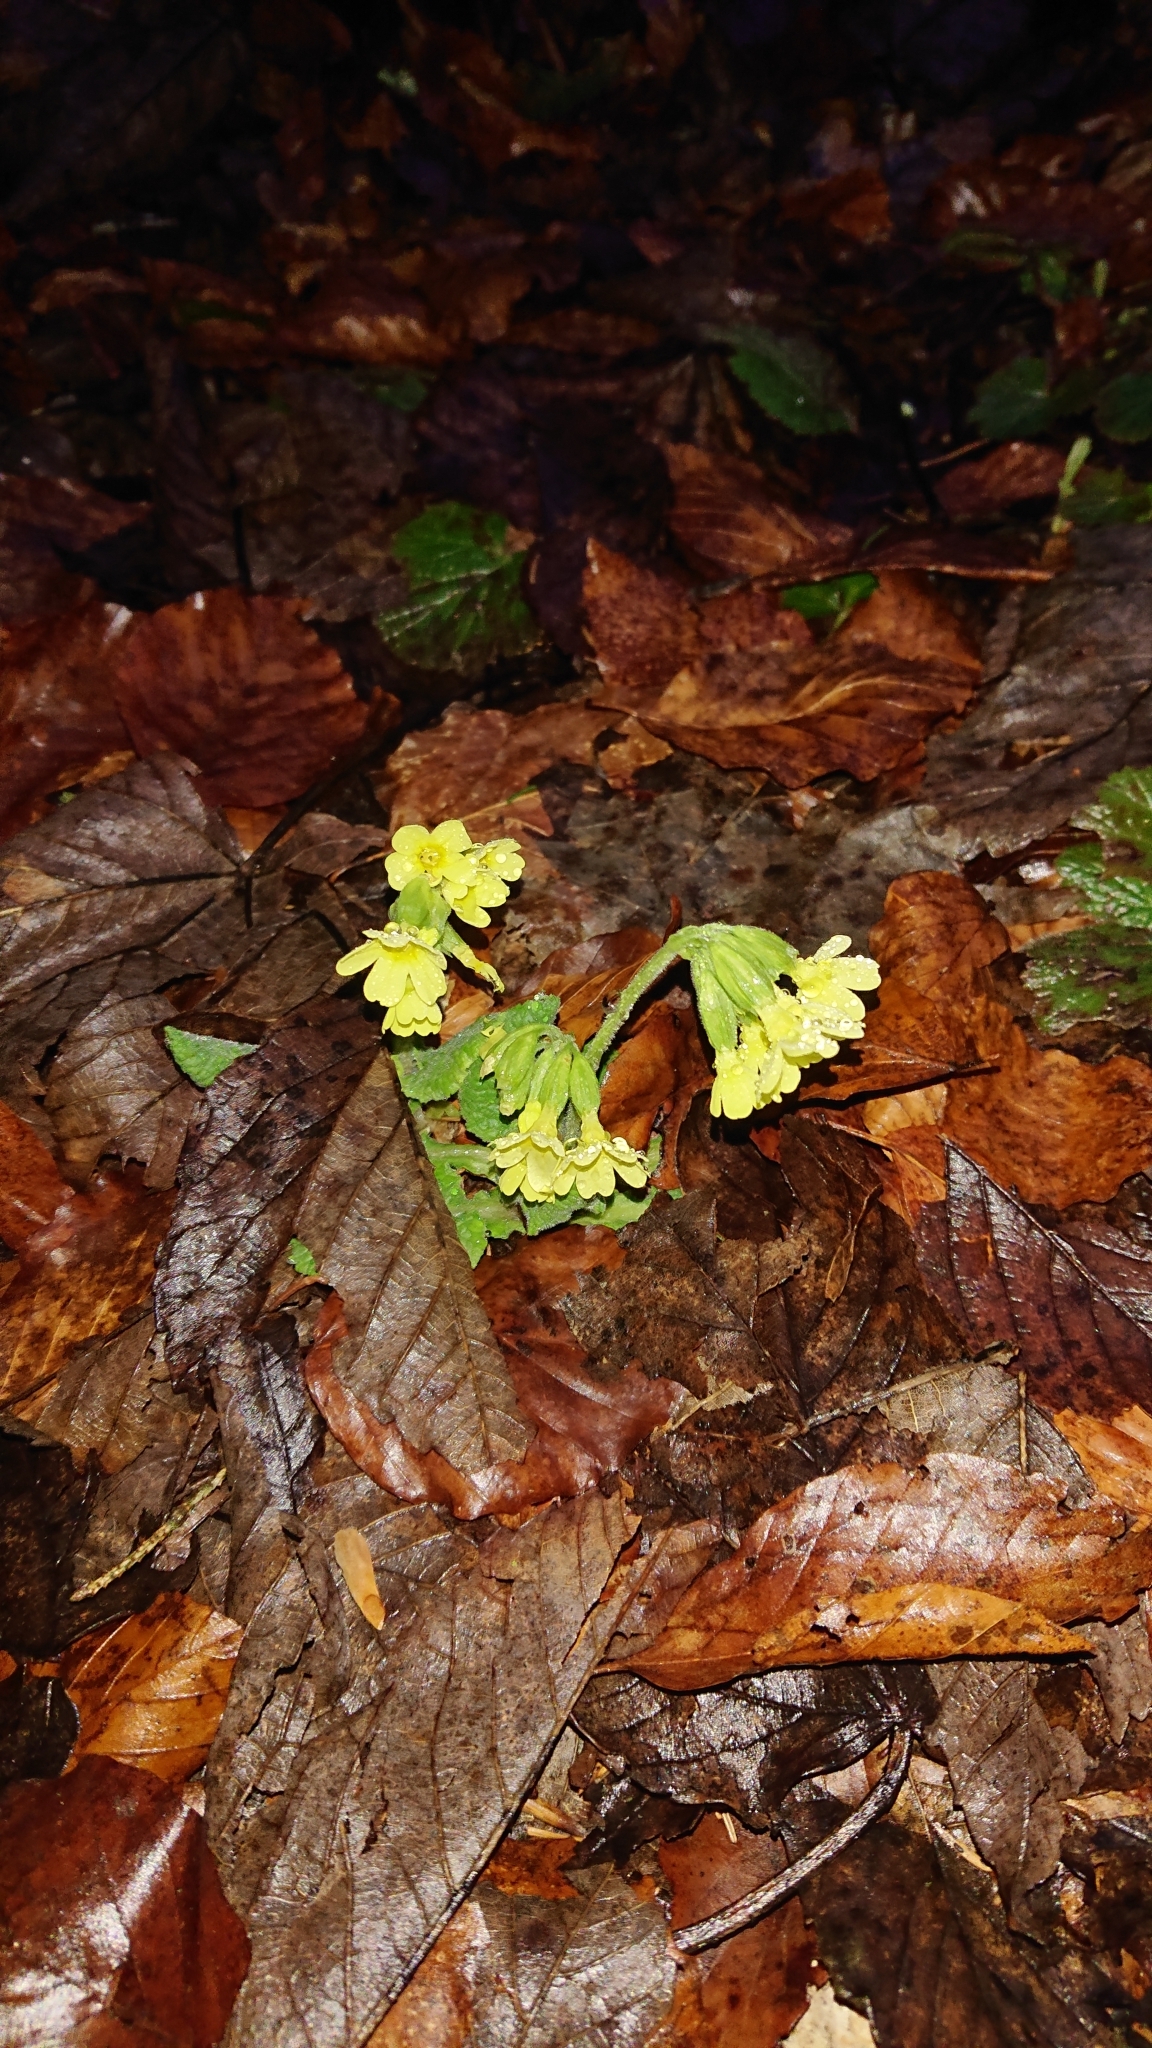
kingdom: Plantae
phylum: Tracheophyta
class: Magnoliopsida
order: Ericales
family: Primulaceae
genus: Primula
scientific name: Primula elatior
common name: Oxlip
